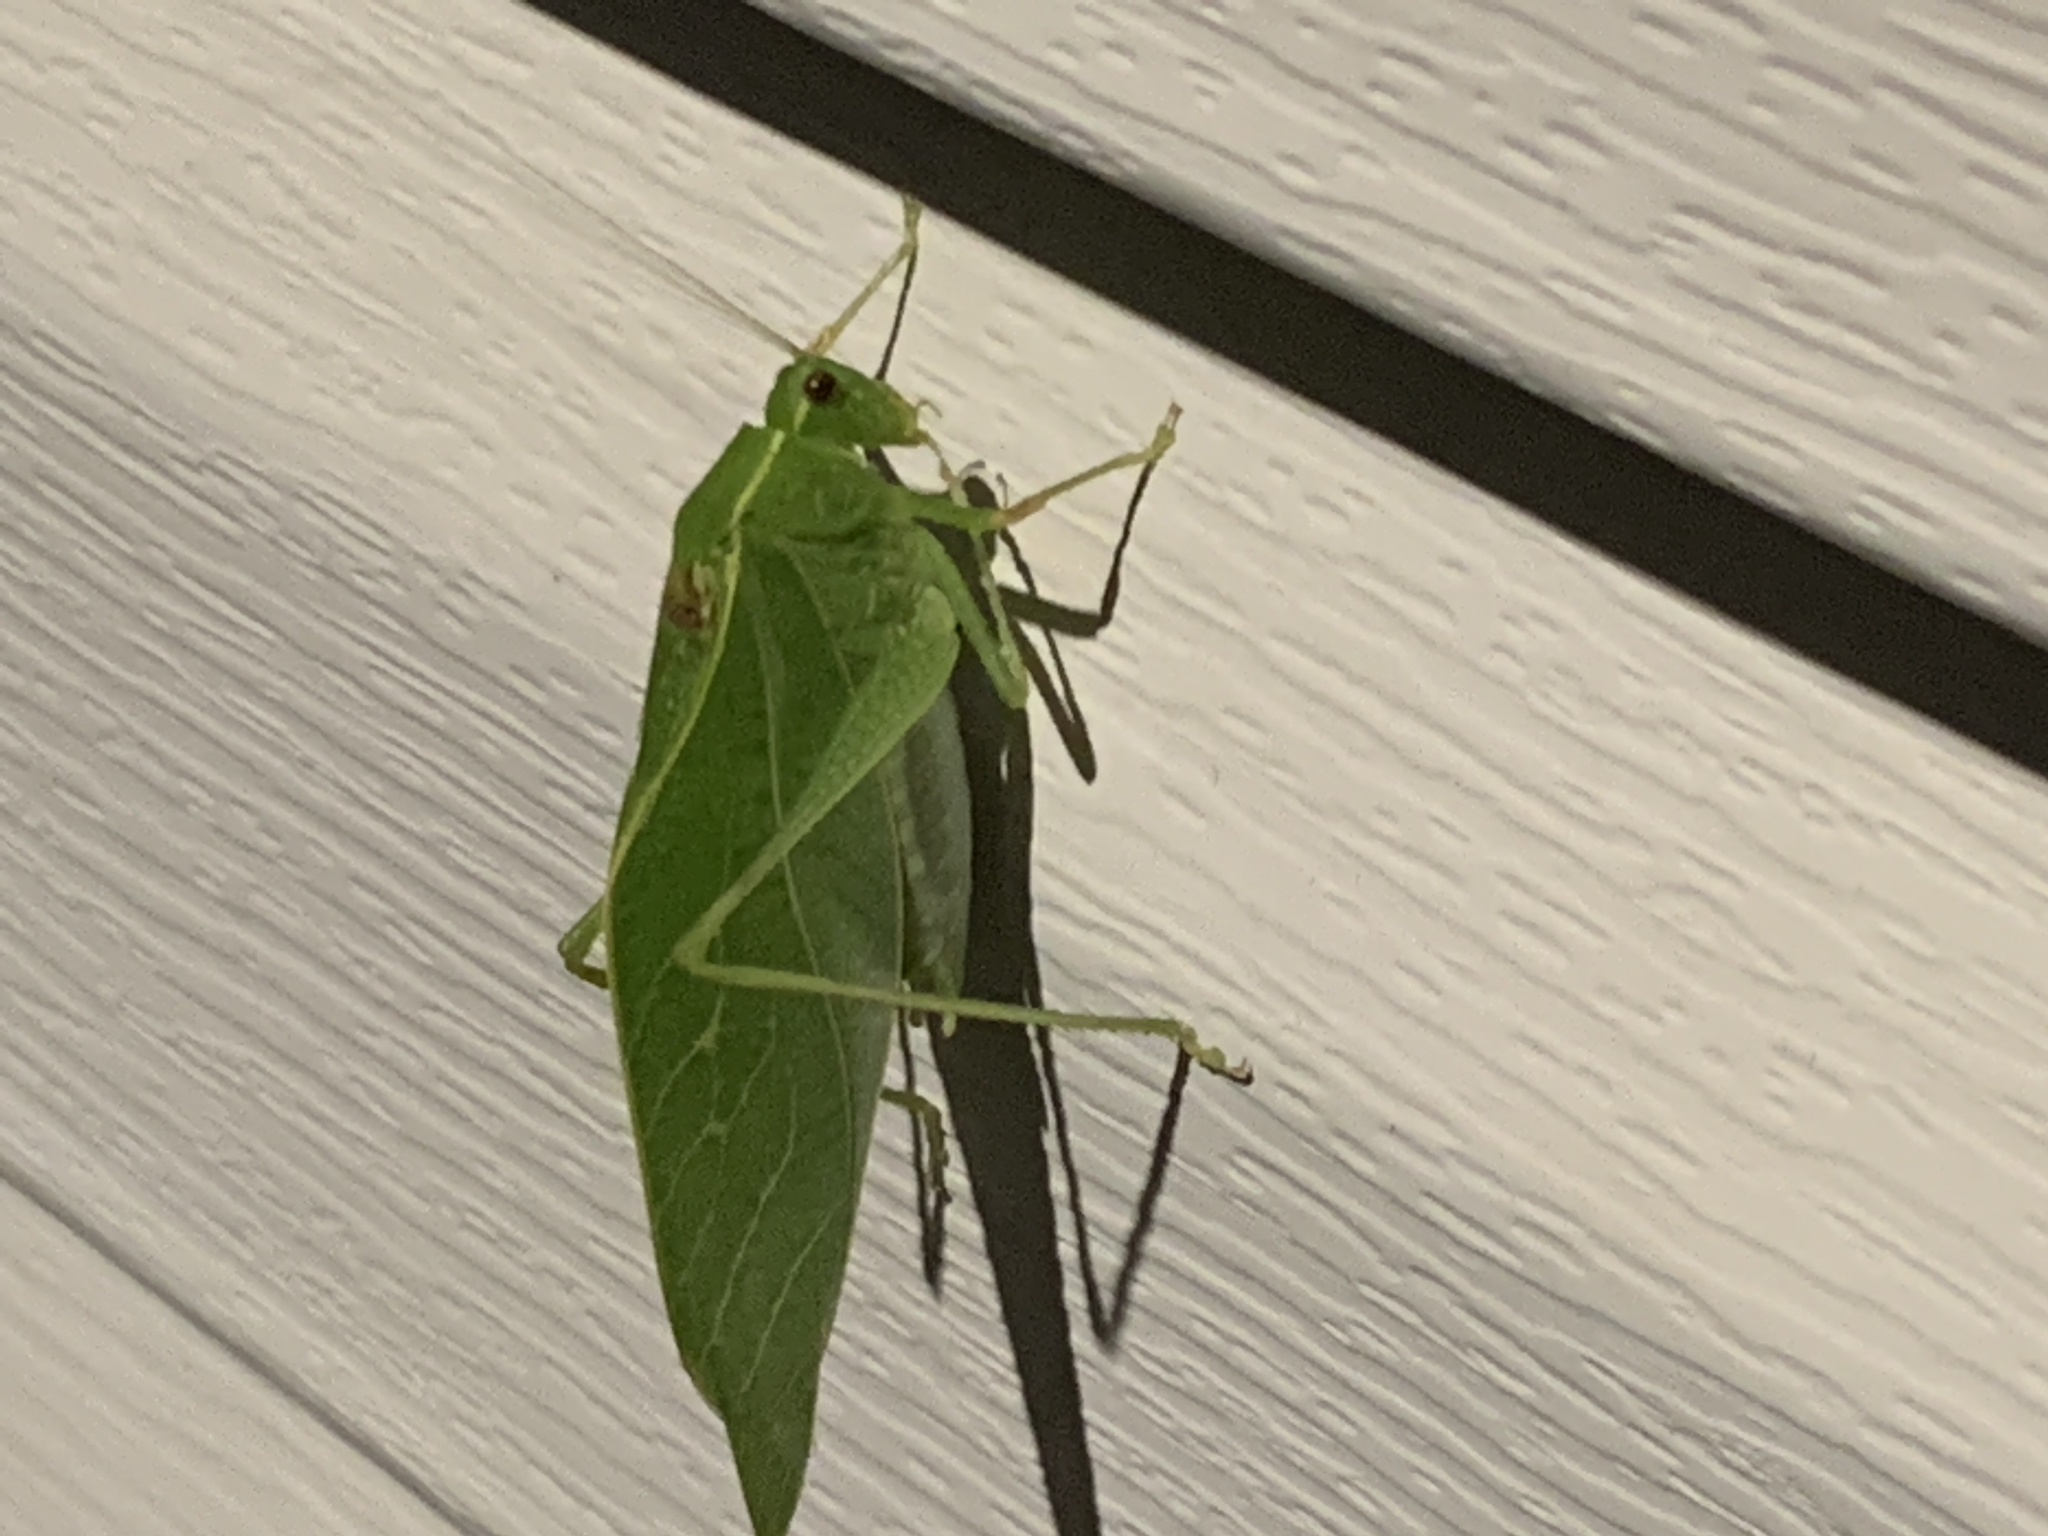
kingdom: Animalia
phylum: Arthropoda
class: Insecta
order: Orthoptera
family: Tettigoniidae
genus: Microcentrum
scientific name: Microcentrum retinerve
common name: Angular-winged katydid
